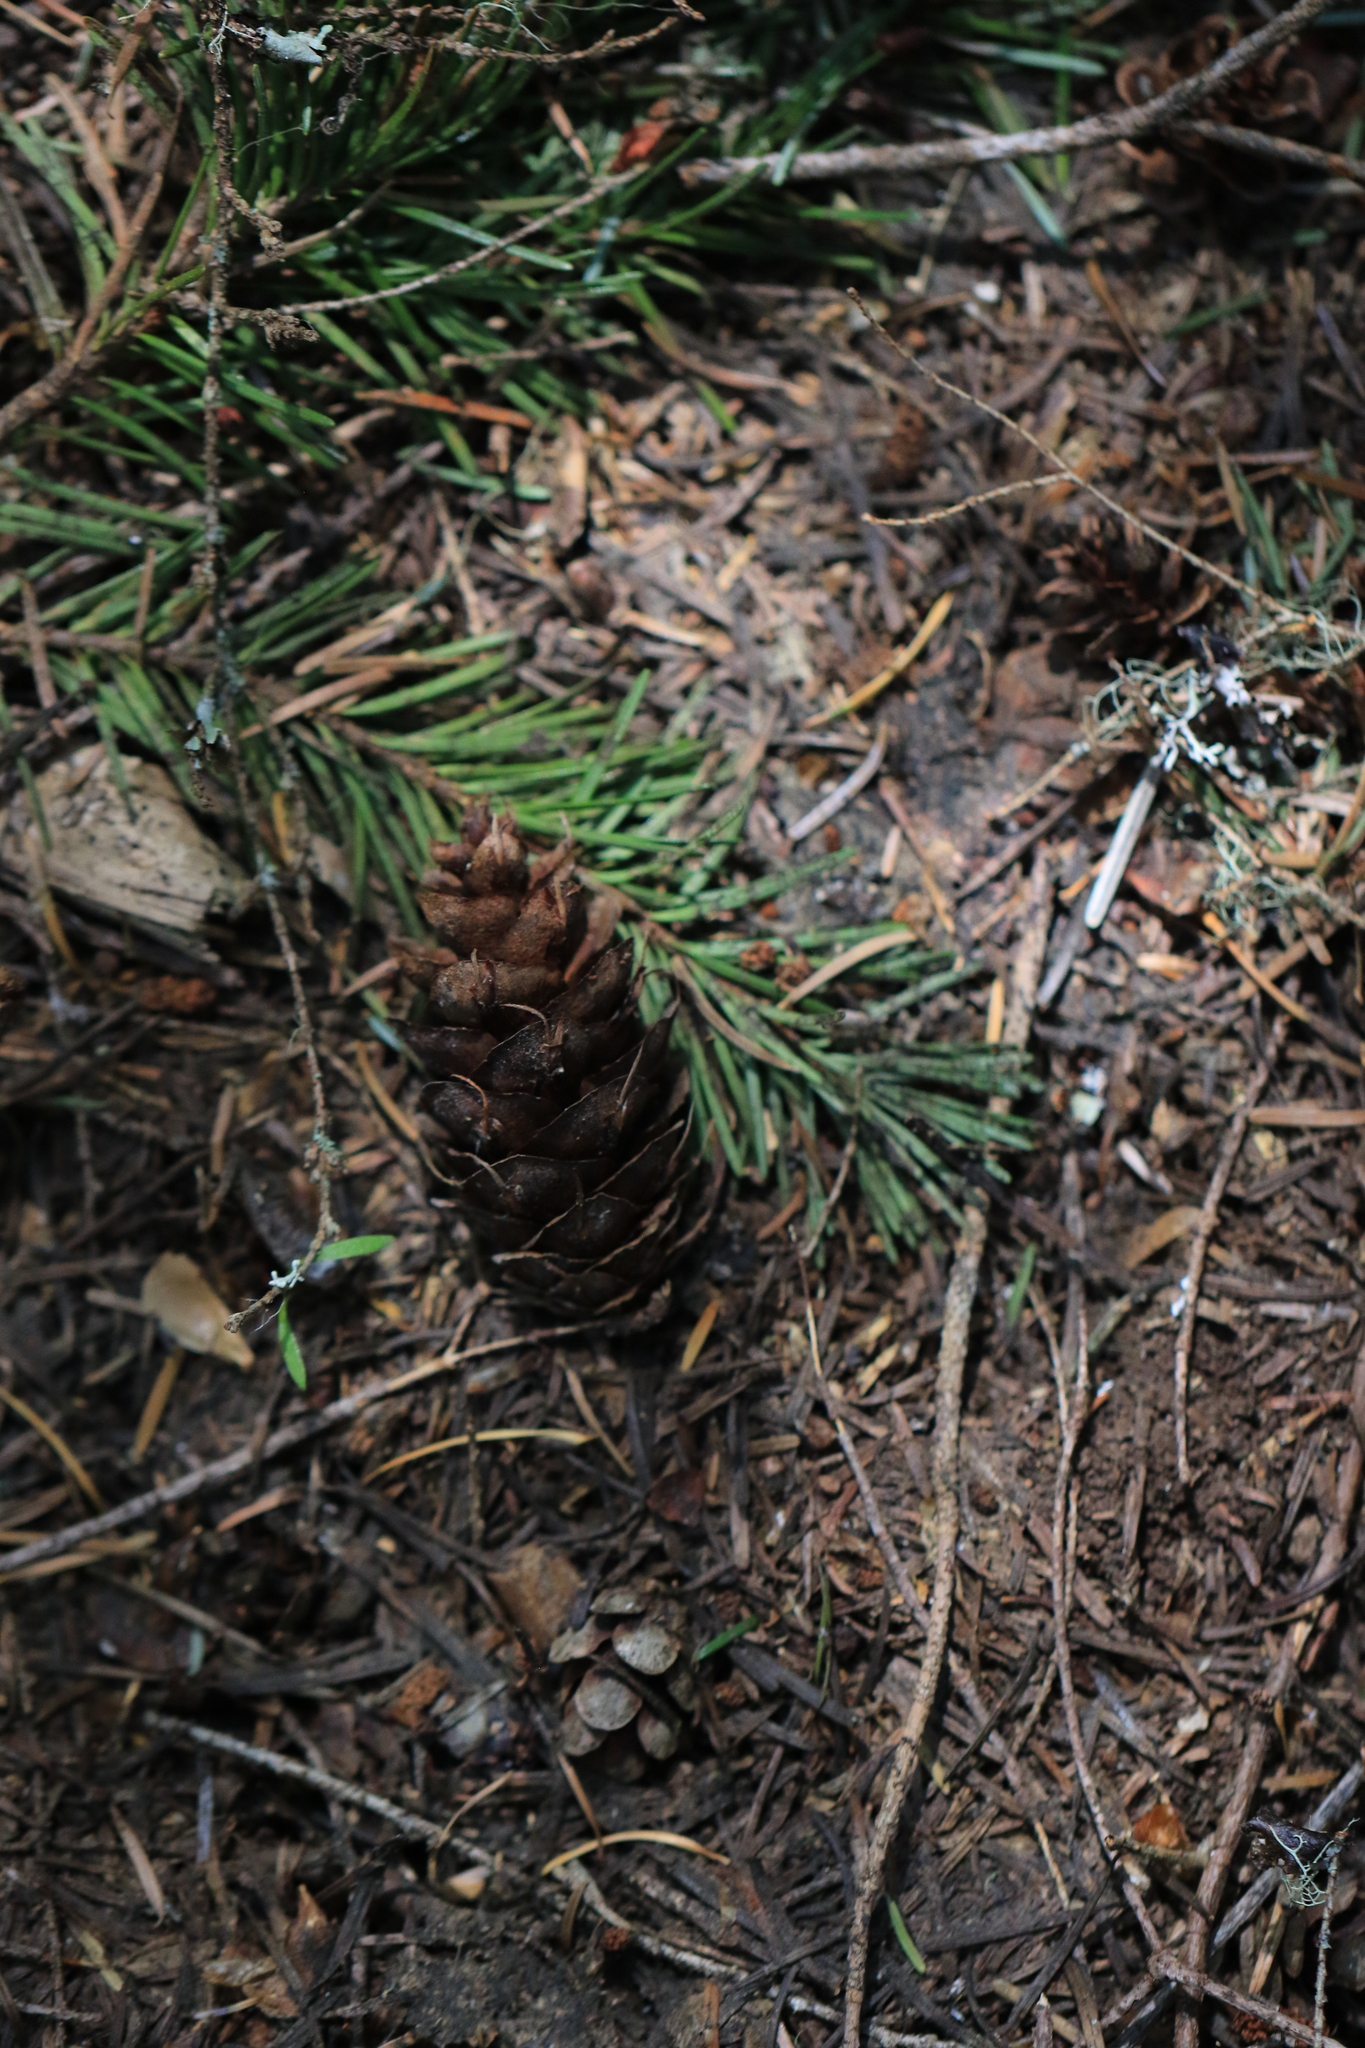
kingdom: Plantae
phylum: Tracheophyta
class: Pinopsida
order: Pinales
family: Pinaceae
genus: Pseudotsuga
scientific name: Pseudotsuga menziesii
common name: Douglas fir
